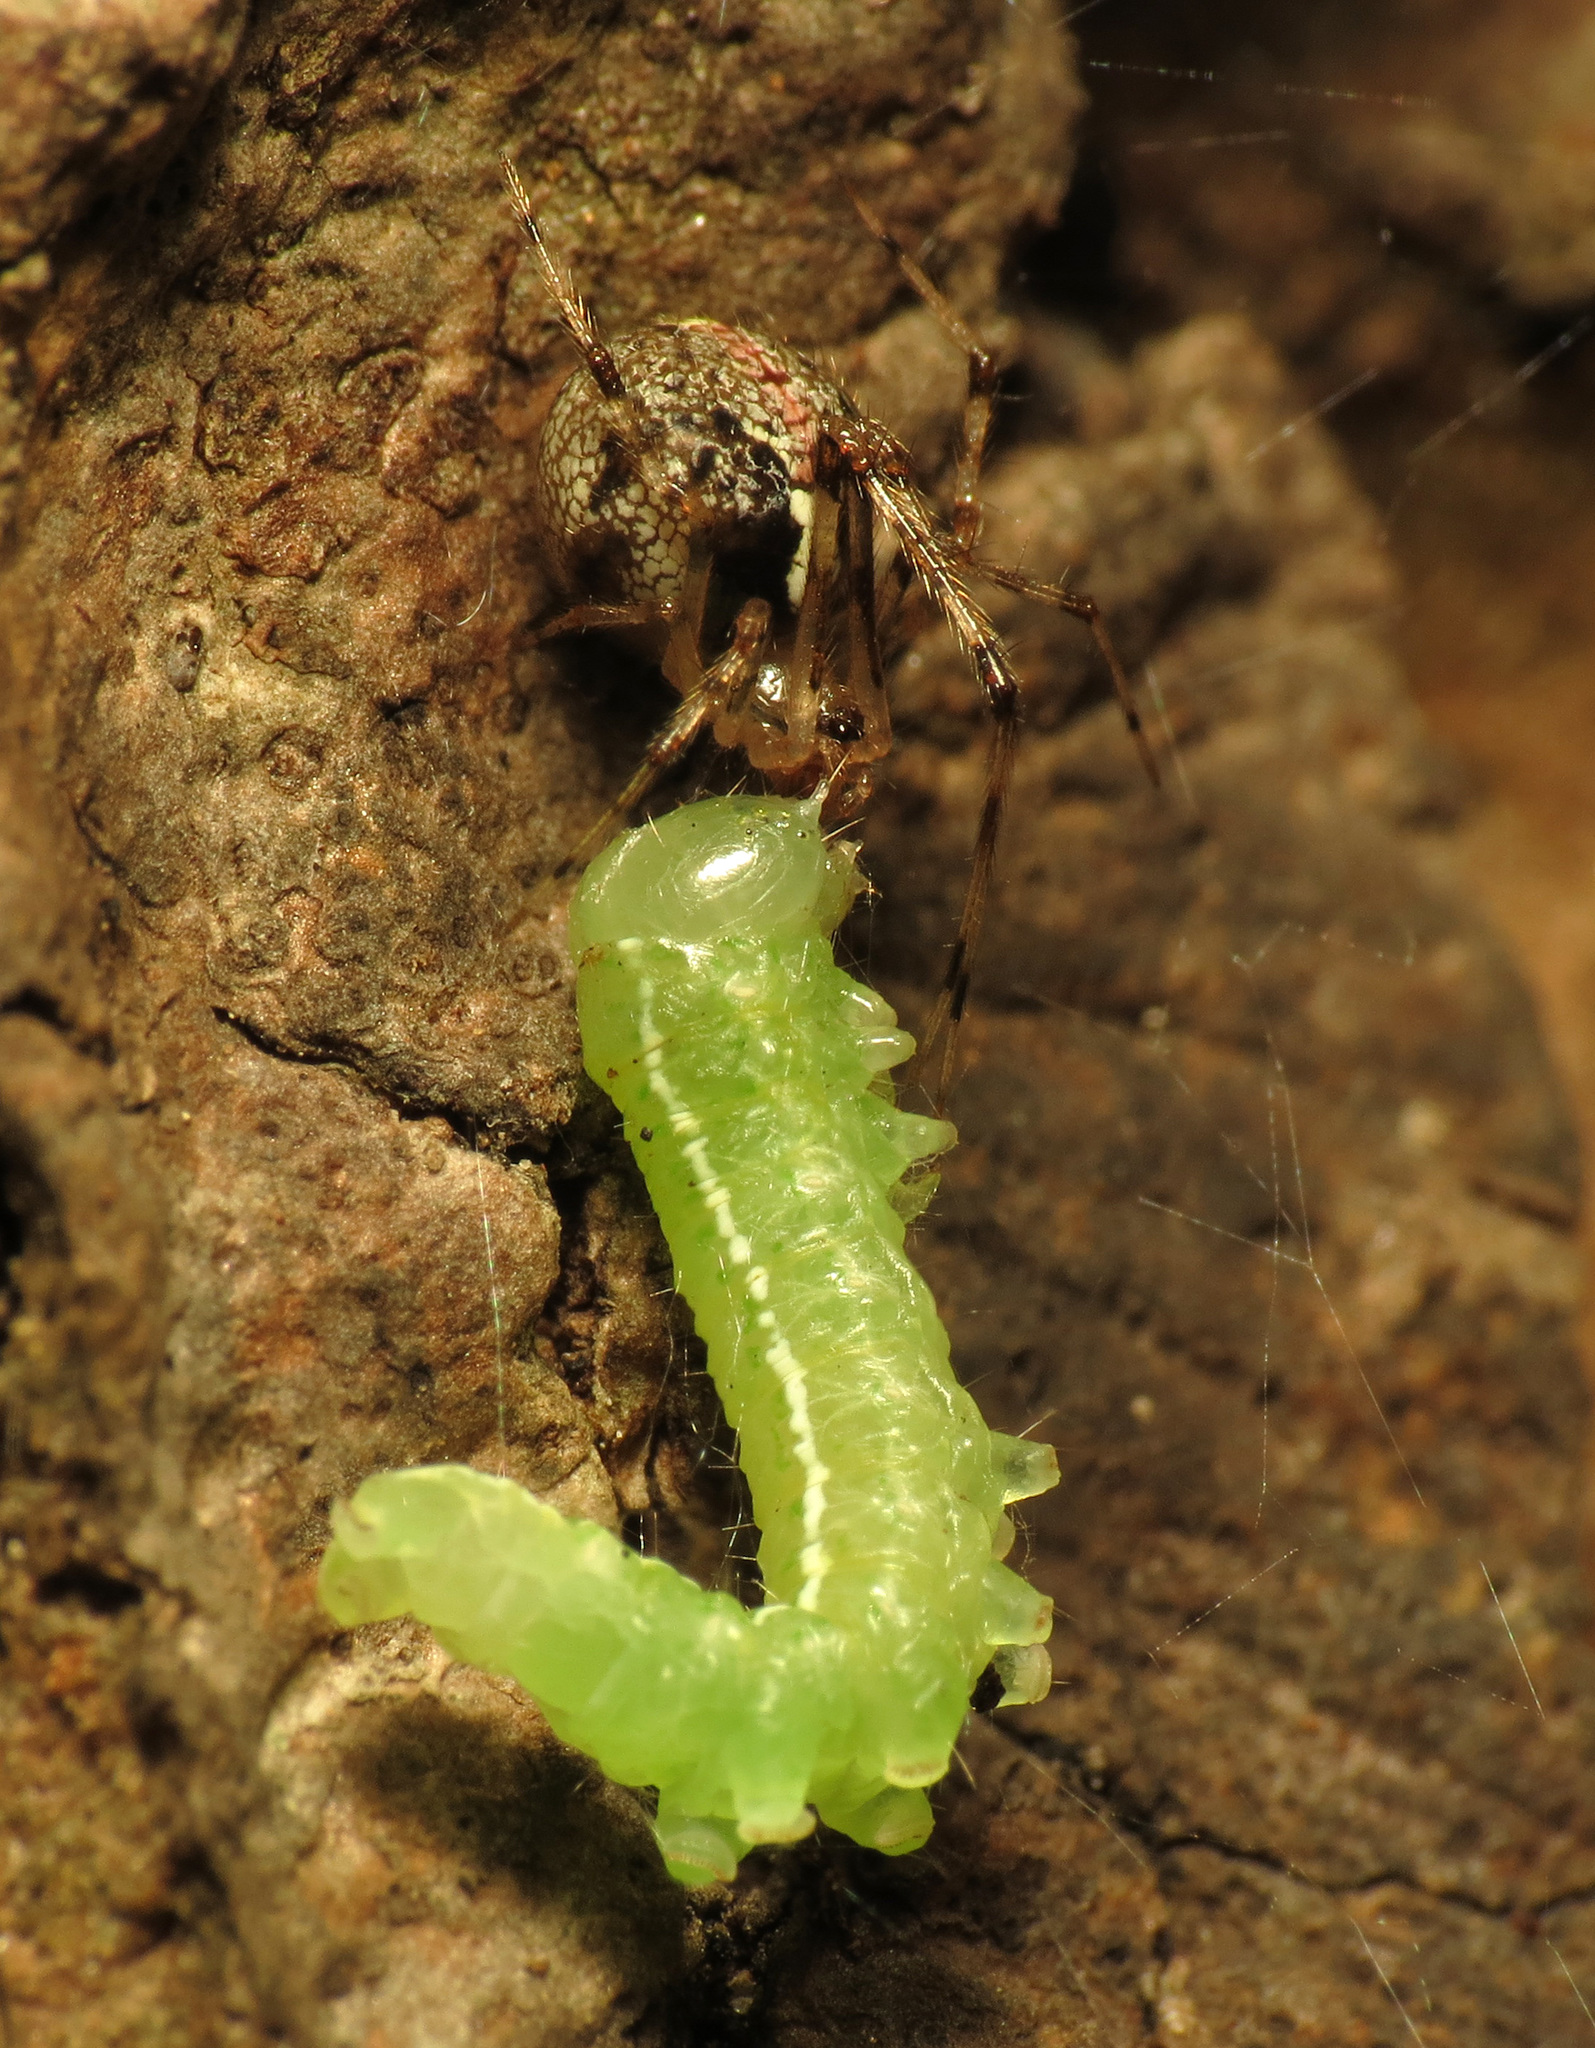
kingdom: Animalia
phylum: Arthropoda
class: Arachnida
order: Araneae
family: Theridiidae
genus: Yunohamella
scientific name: Yunohamella lyrica
